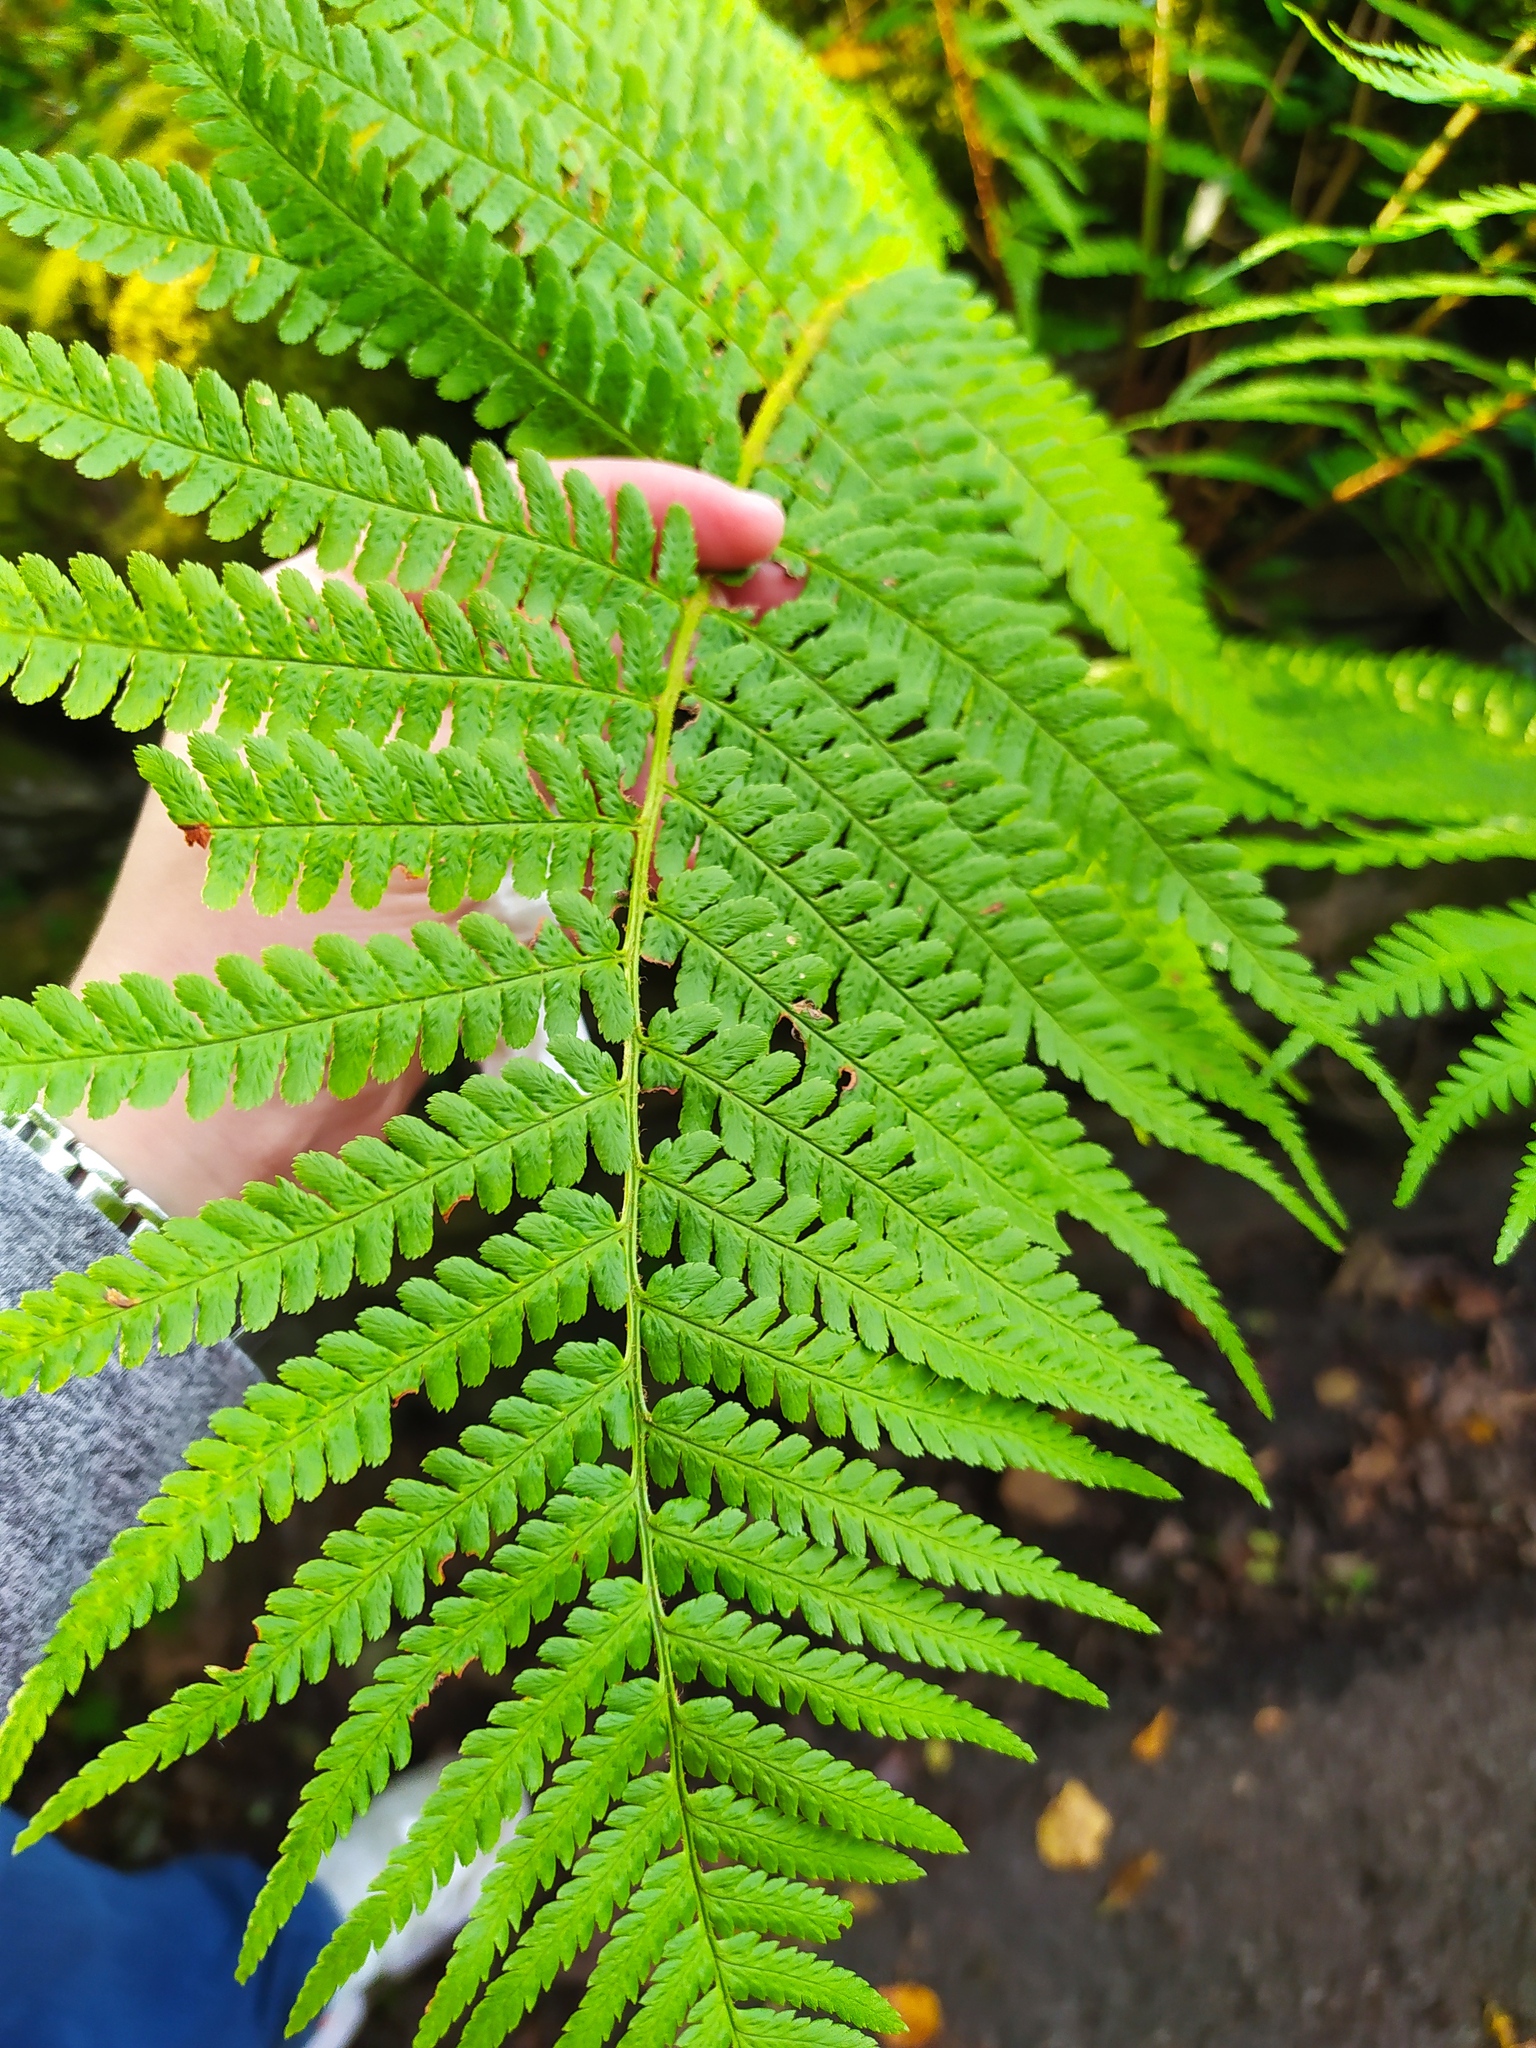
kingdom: Plantae
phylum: Tracheophyta
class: Polypodiopsida
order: Polypodiales
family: Dryopteridaceae
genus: Dryopteris
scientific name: Dryopteris filix-mas
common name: Male fern
